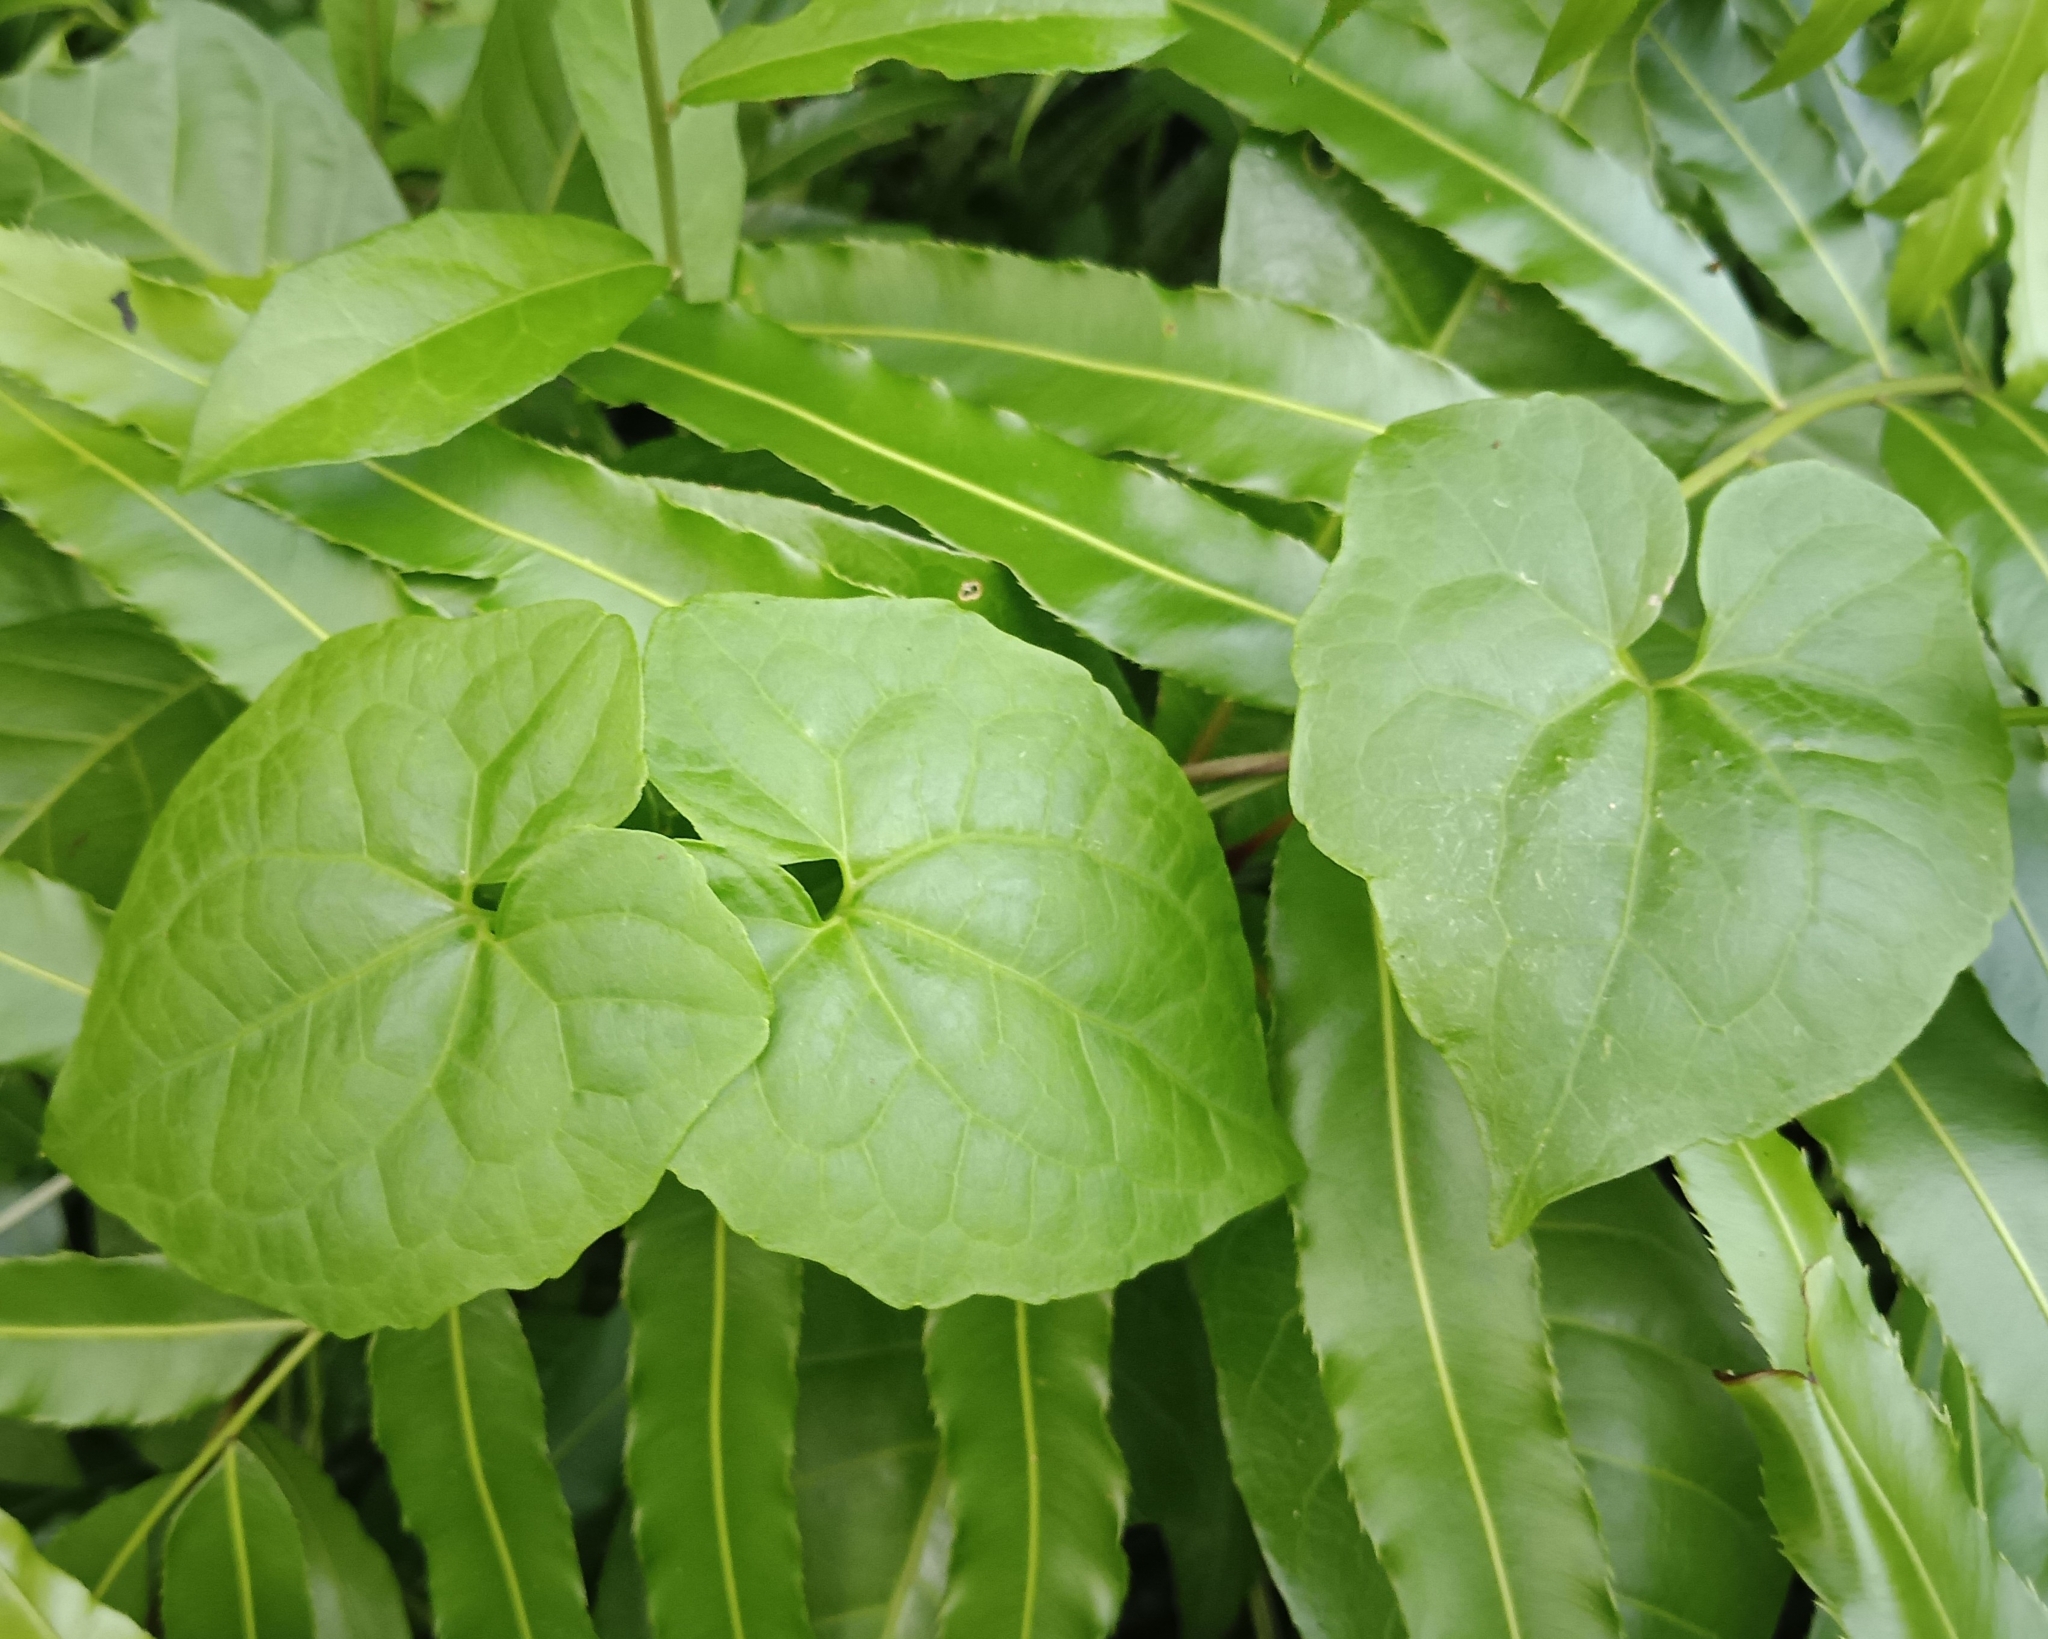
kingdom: Plantae
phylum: Tracheophyta
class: Magnoliopsida
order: Asterales
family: Asteraceae
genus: Mikania
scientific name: Mikania micrantha
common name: Mile-a-minute
